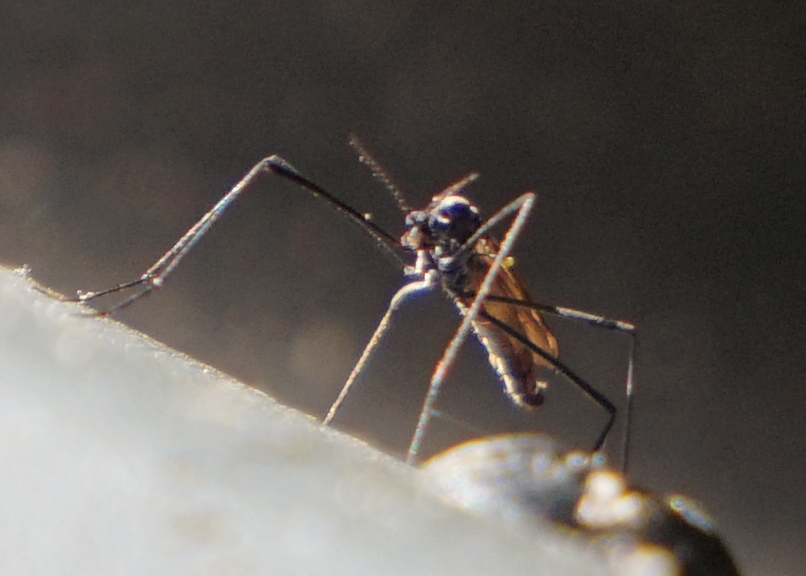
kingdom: Animalia
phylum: Arthropoda
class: Insecta
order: Diptera
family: Limoniidae
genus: Gnophomyia
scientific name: Gnophomyia tristissima
